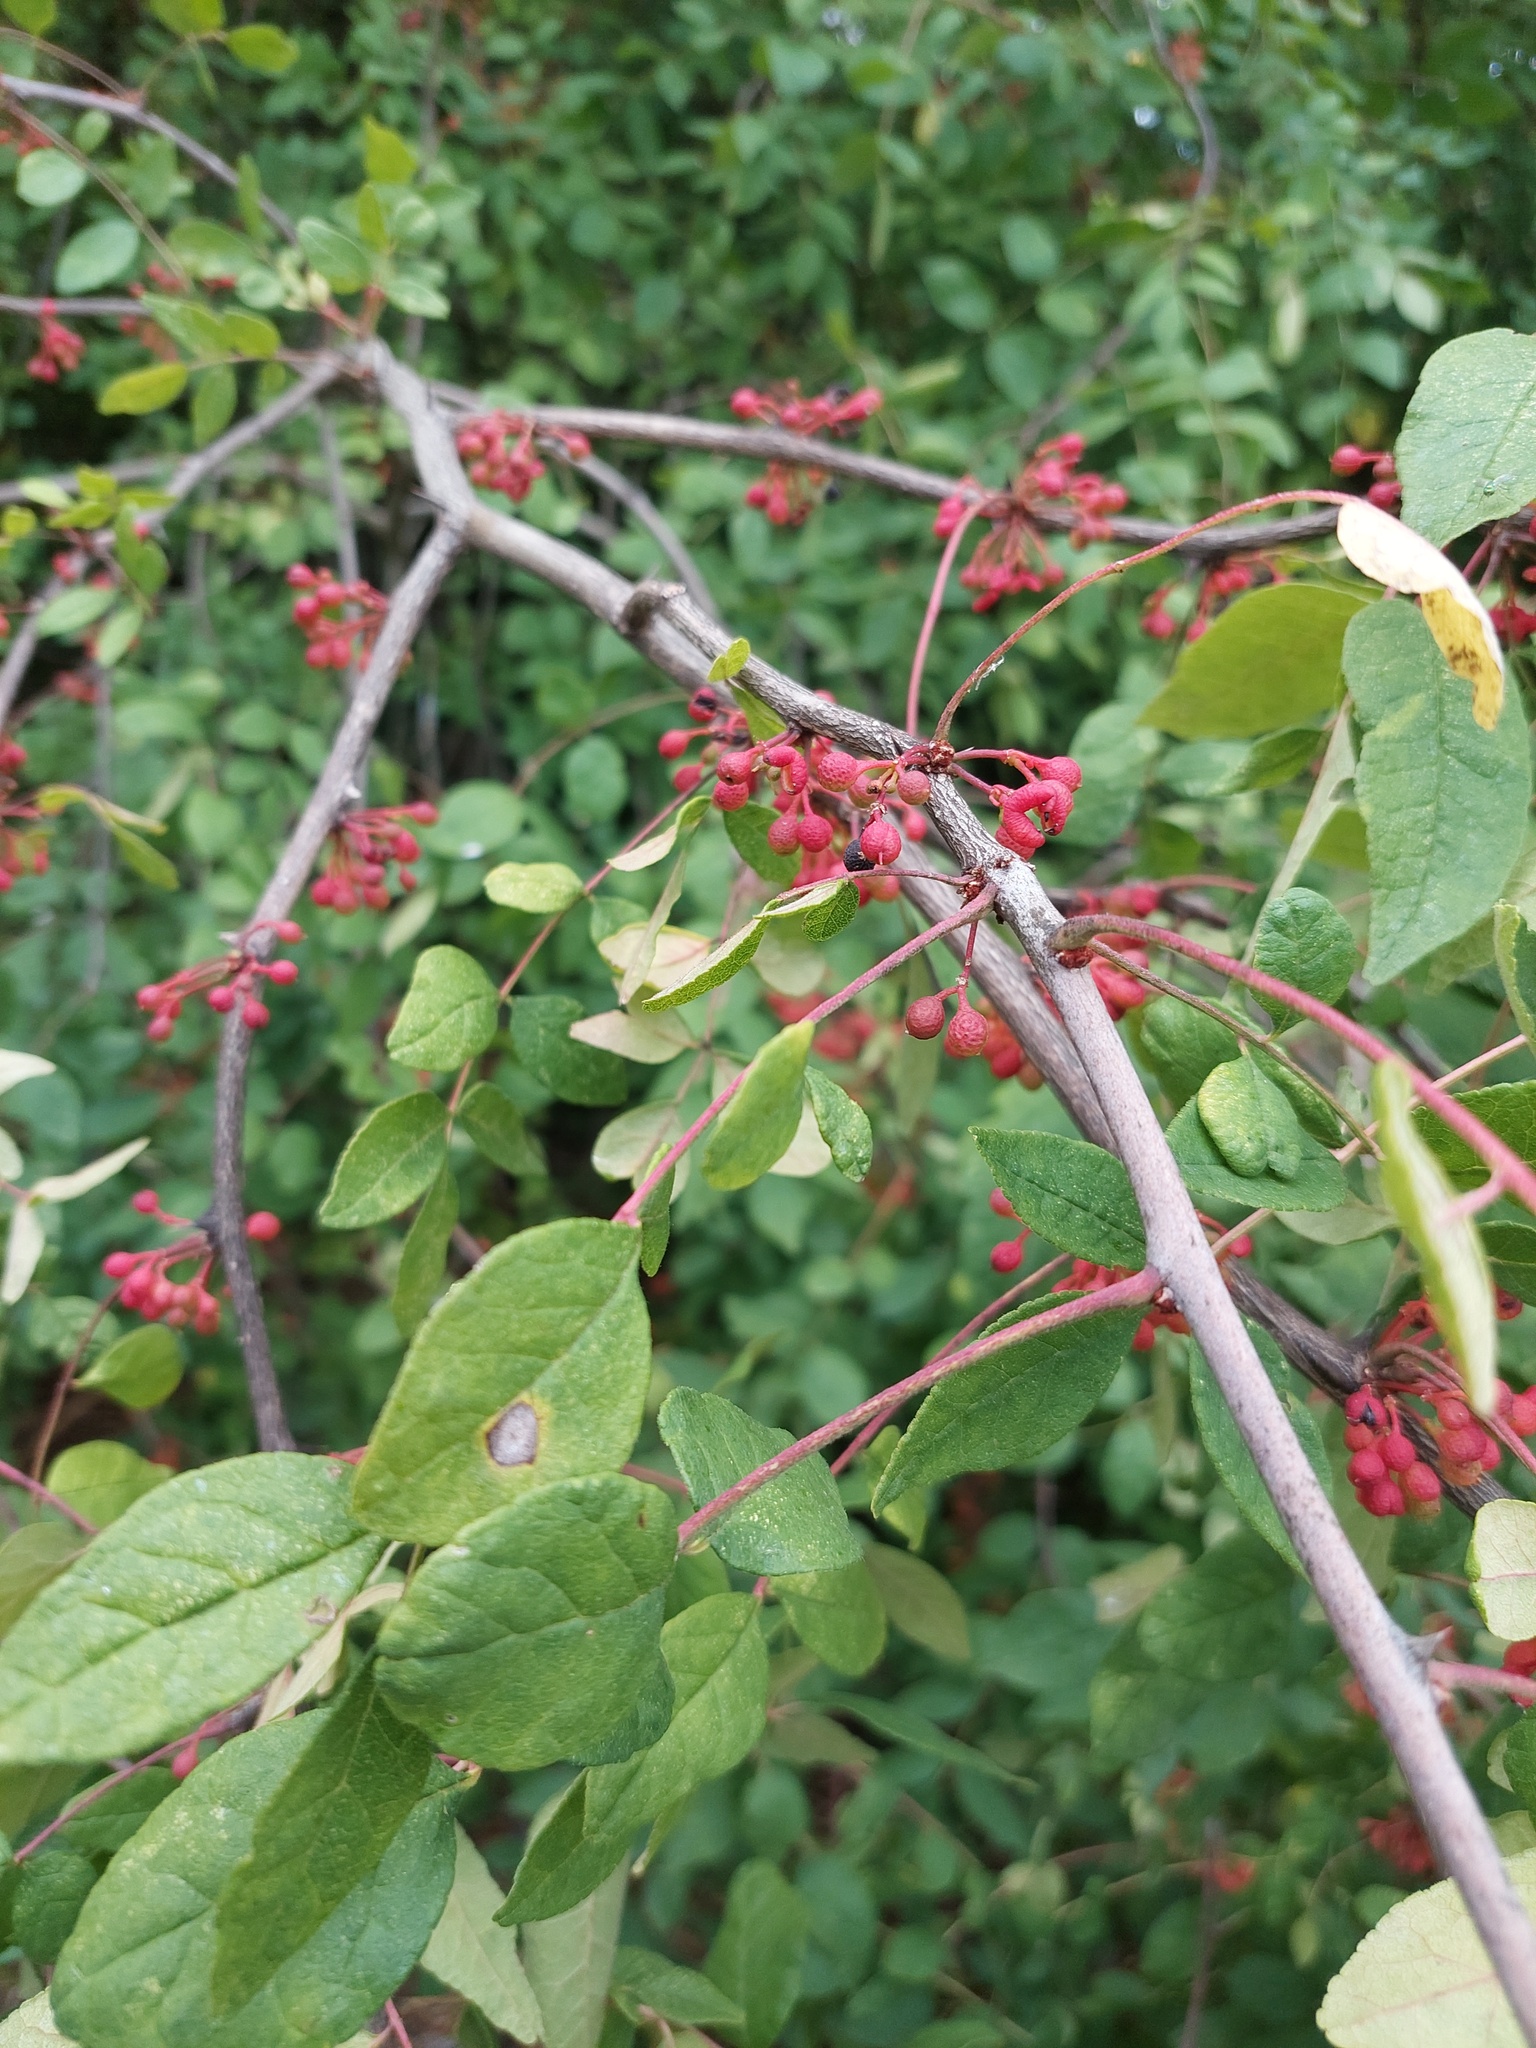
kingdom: Plantae
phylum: Tracheophyta
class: Magnoliopsida
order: Sapindales
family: Rutaceae
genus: Zanthoxylum
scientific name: Zanthoxylum americanum
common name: Northern prickly-ash
